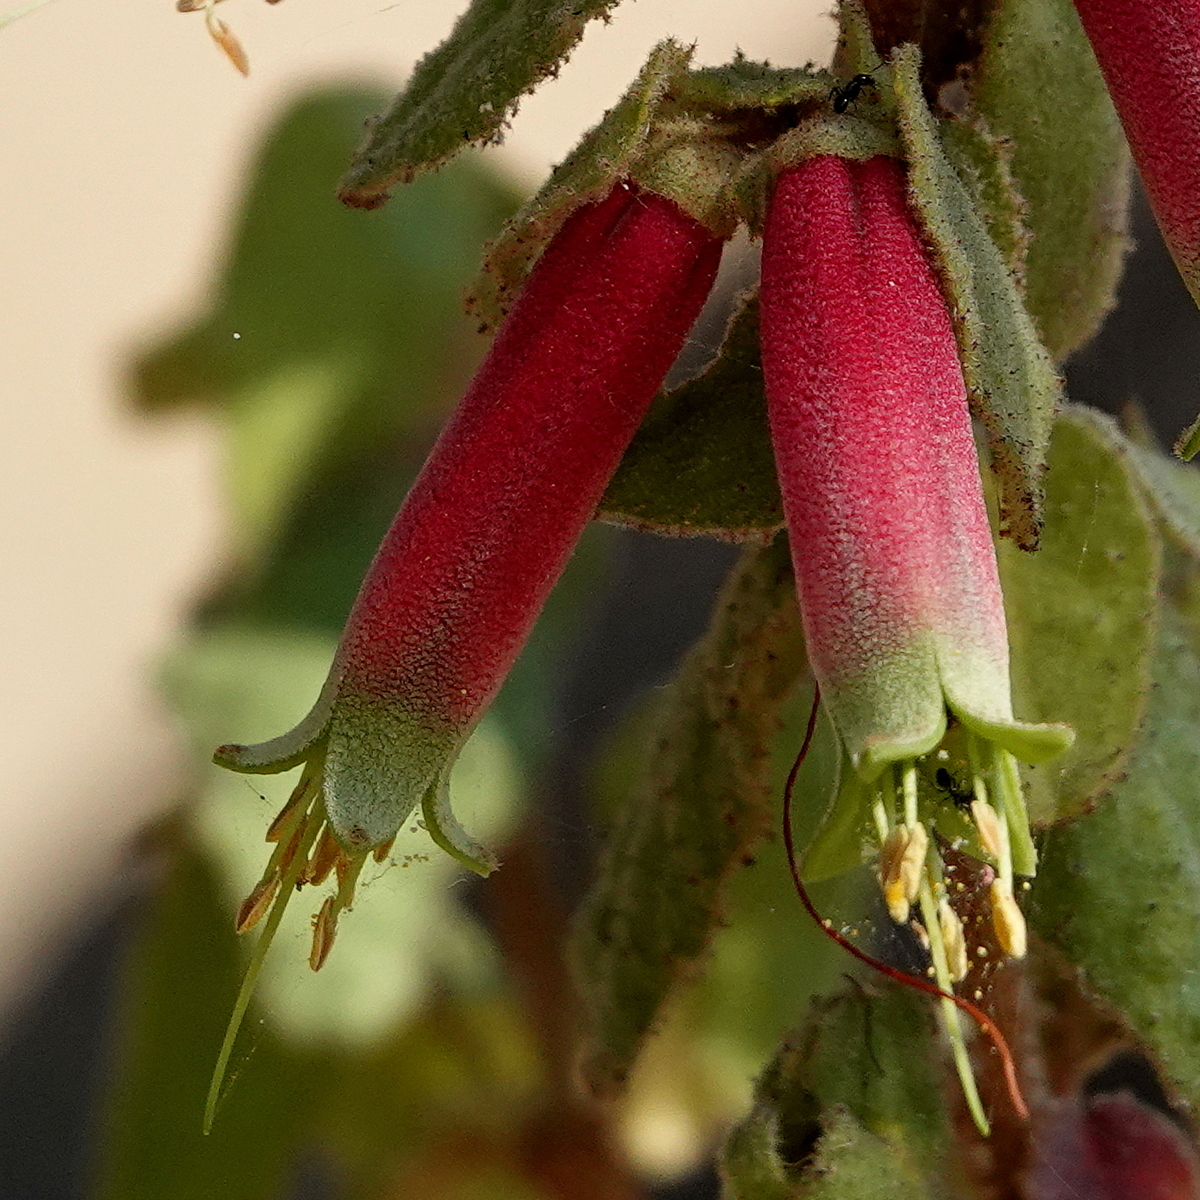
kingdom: Plantae
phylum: Tracheophyta
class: Magnoliopsida
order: Sapindales
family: Rutaceae
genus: Correa
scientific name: Correa reflexa
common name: Common correa
